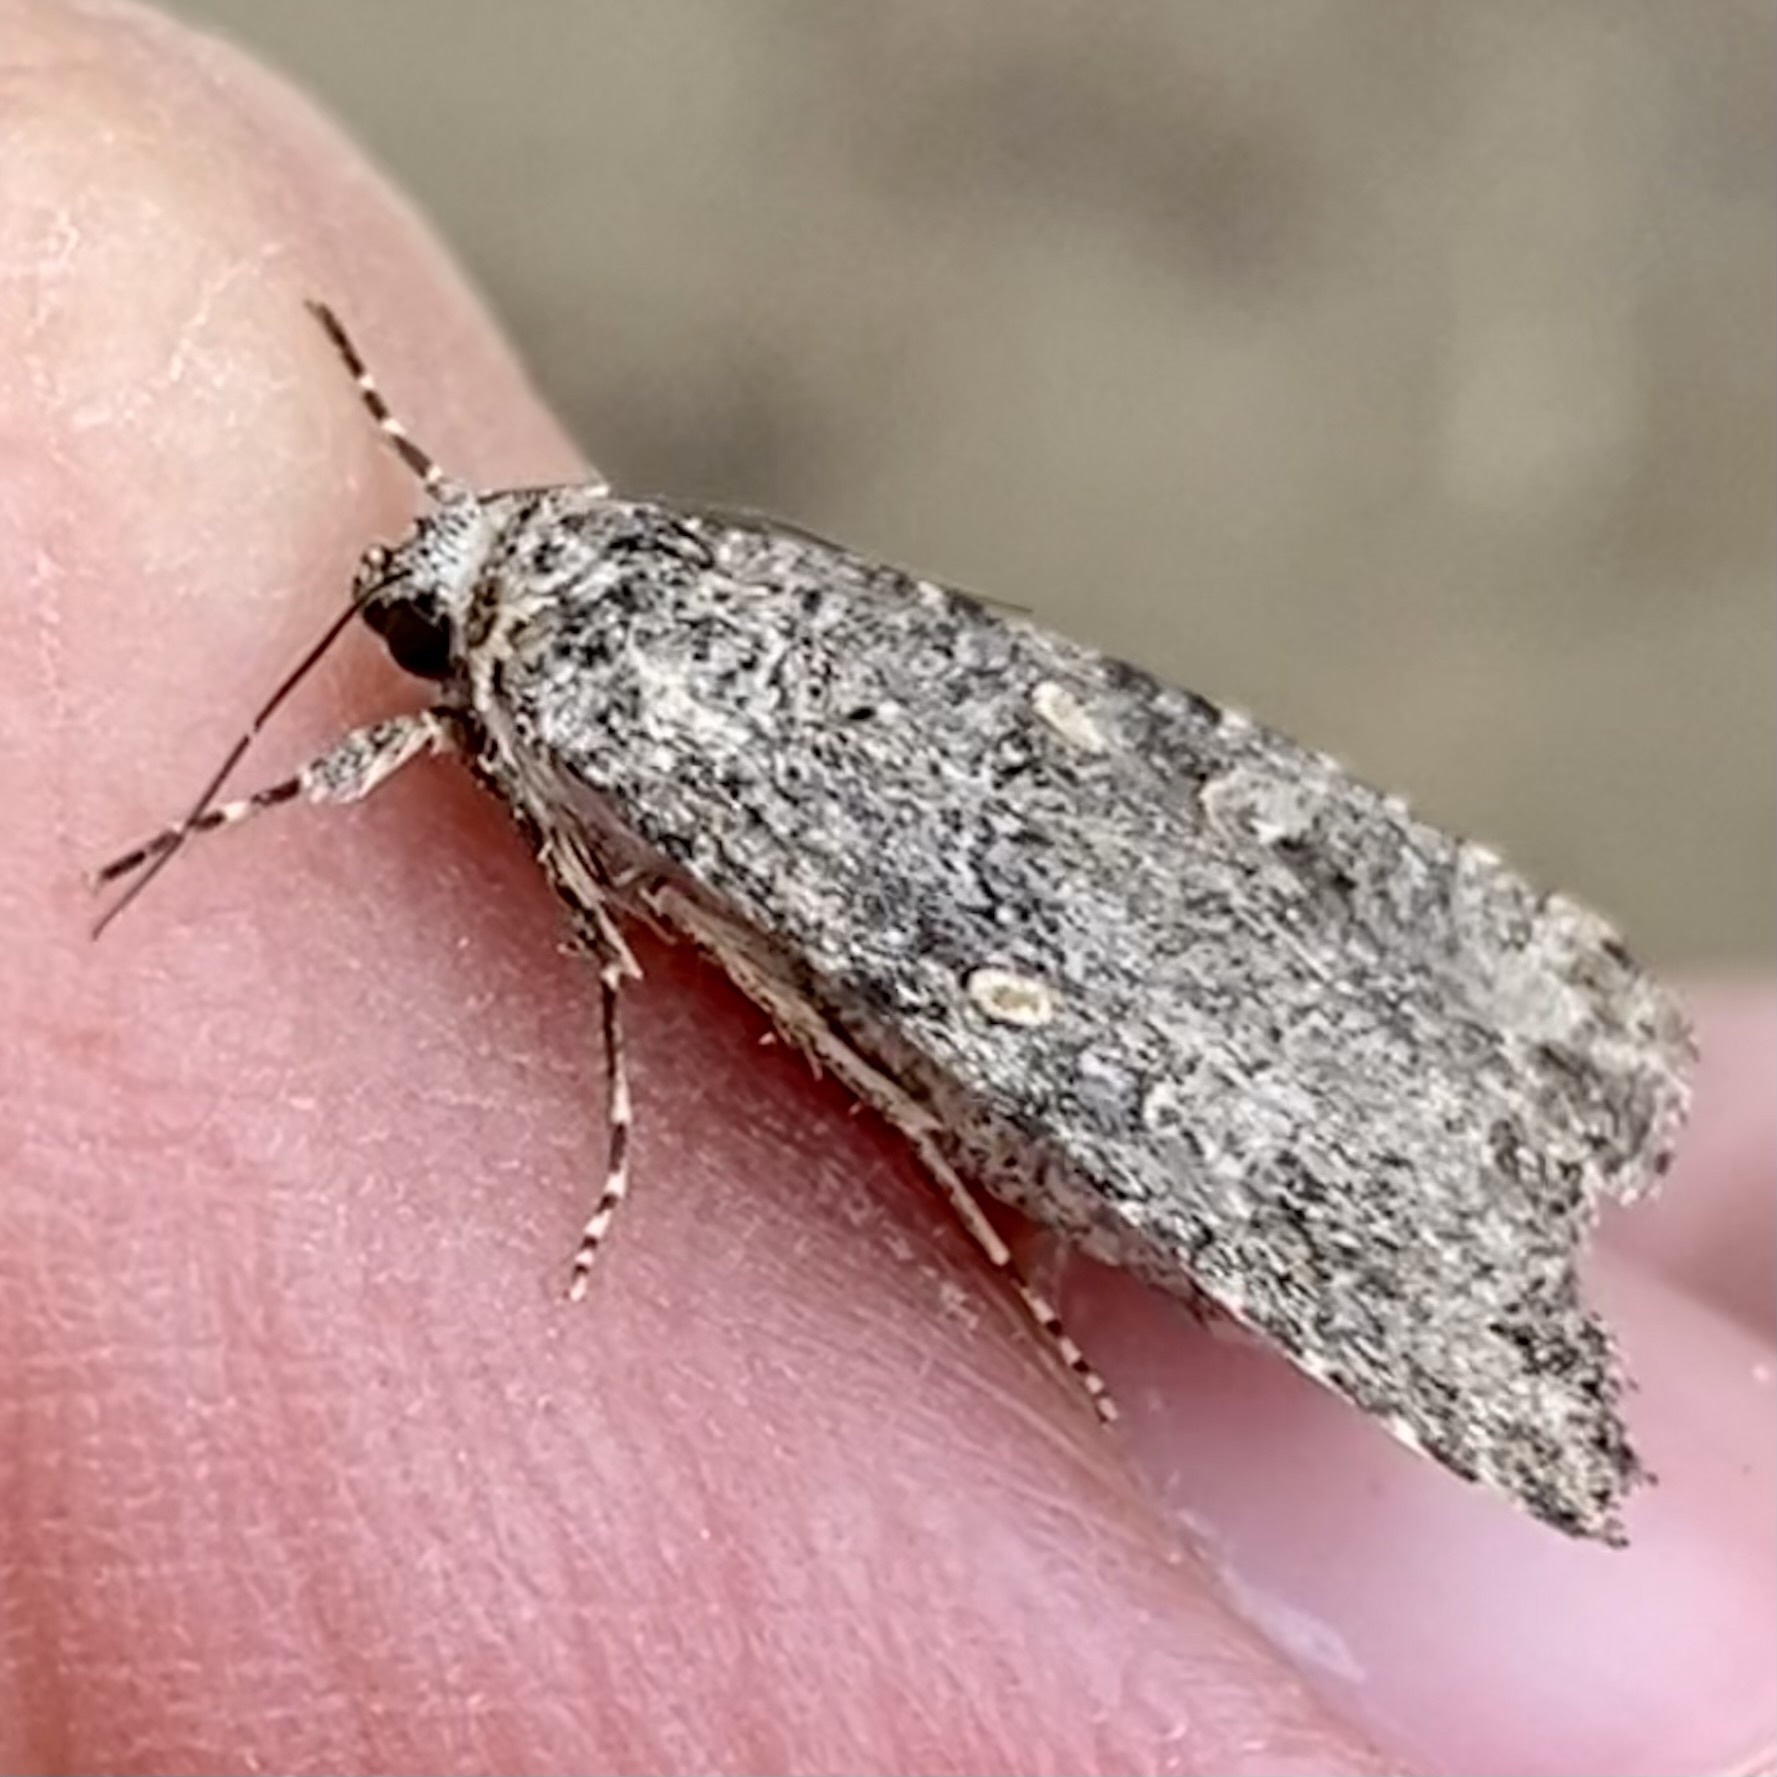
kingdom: Animalia
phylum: Arthropoda
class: Insecta
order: Lepidoptera
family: Noctuidae
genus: Spodoptera
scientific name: Spodoptera exigua
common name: Beet armyworm
